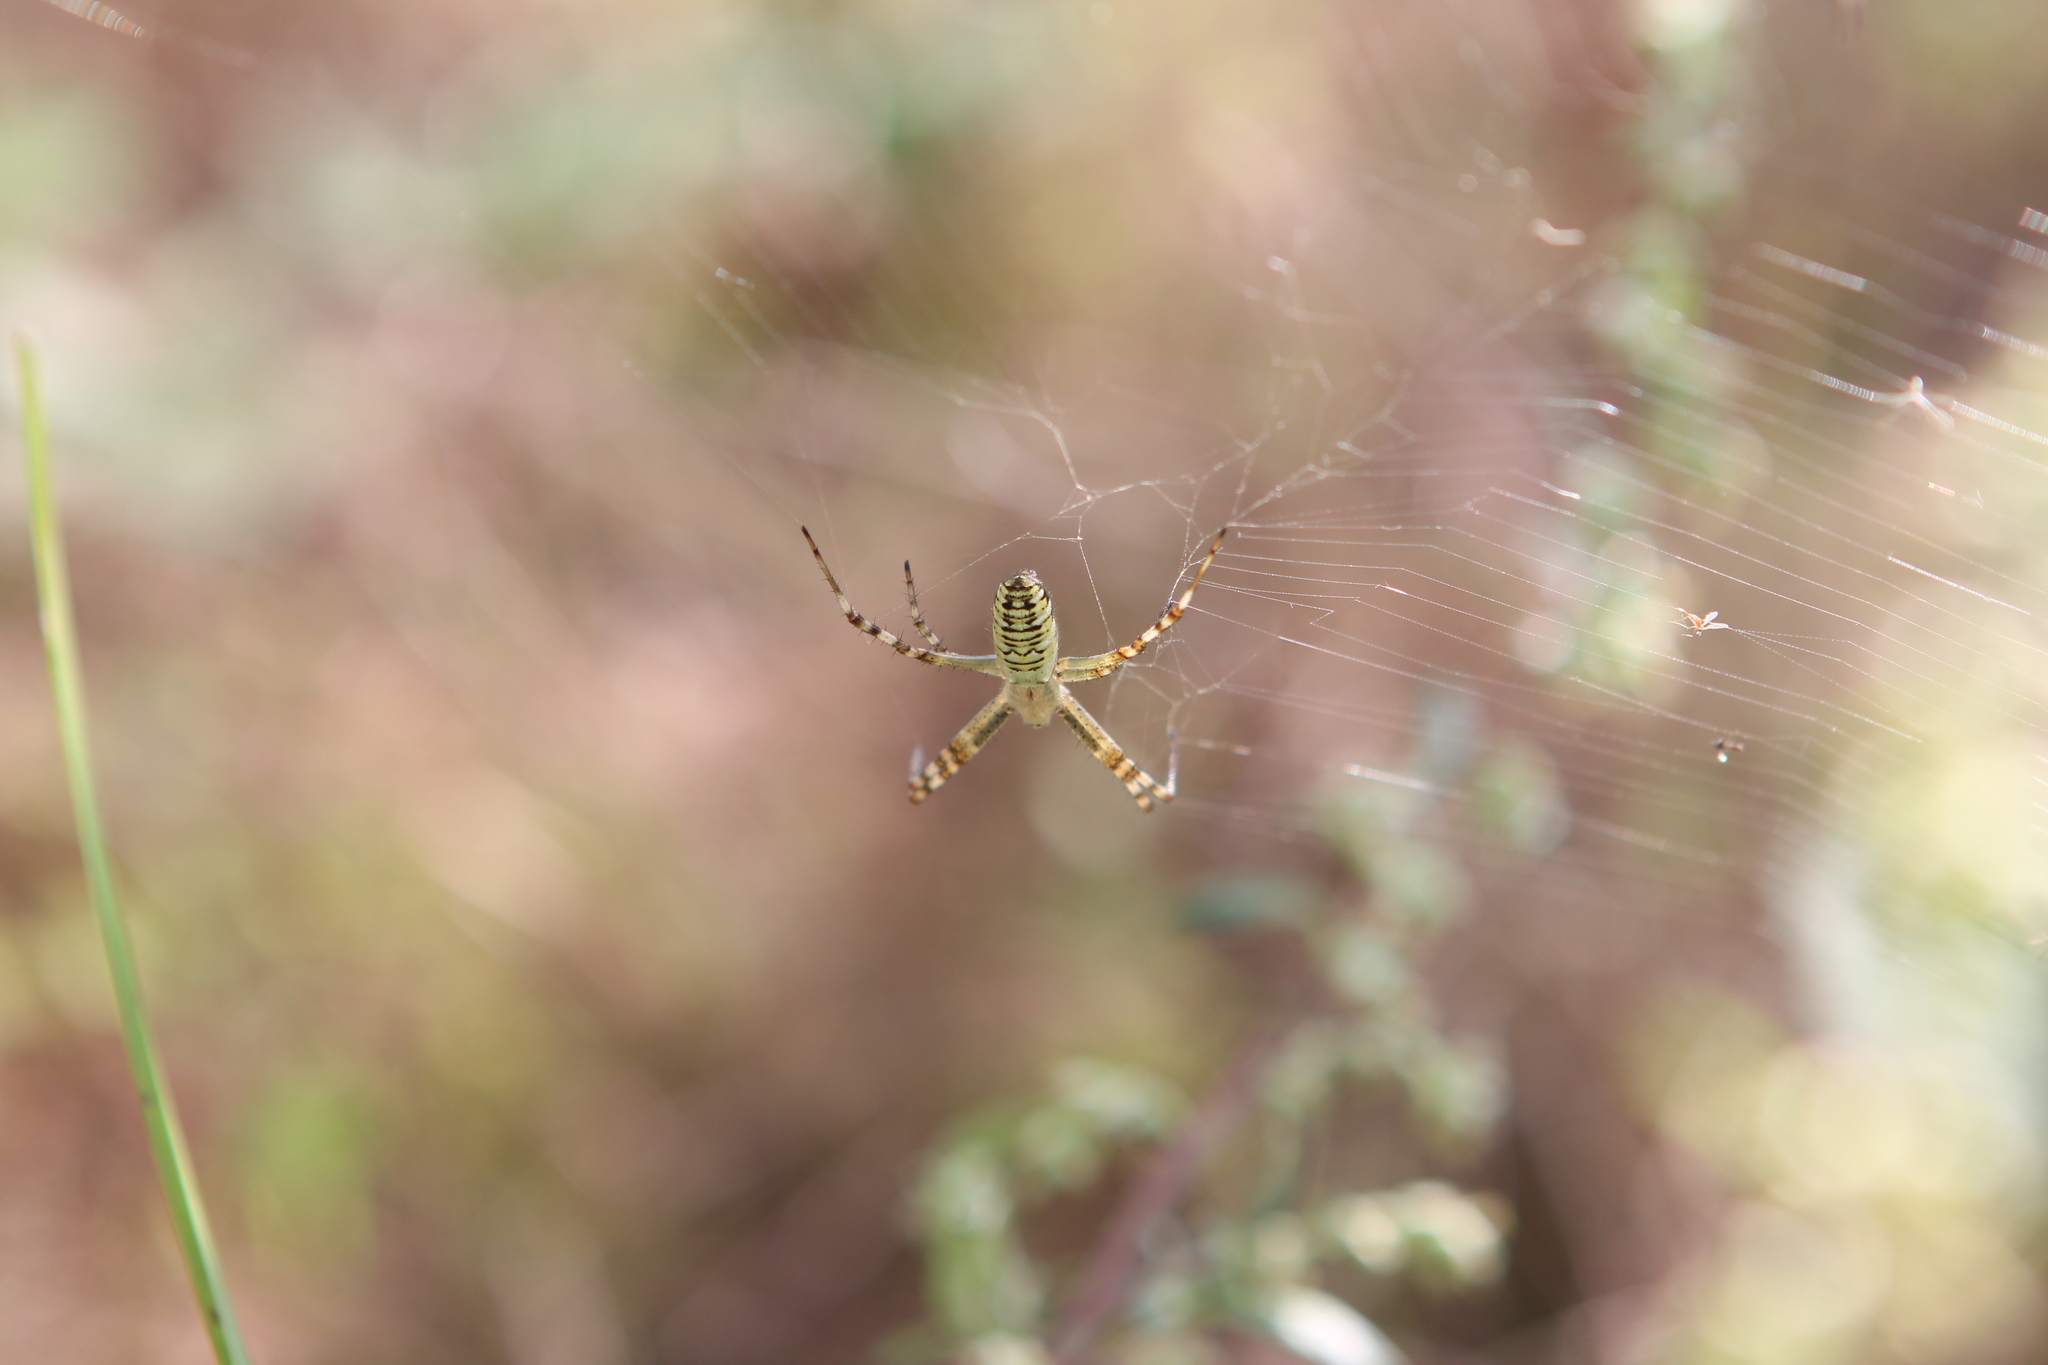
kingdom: Animalia
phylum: Arthropoda
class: Arachnida
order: Araneae
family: Araneidae
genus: Argiope
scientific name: Argiope bruennichi
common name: Wasp spider
